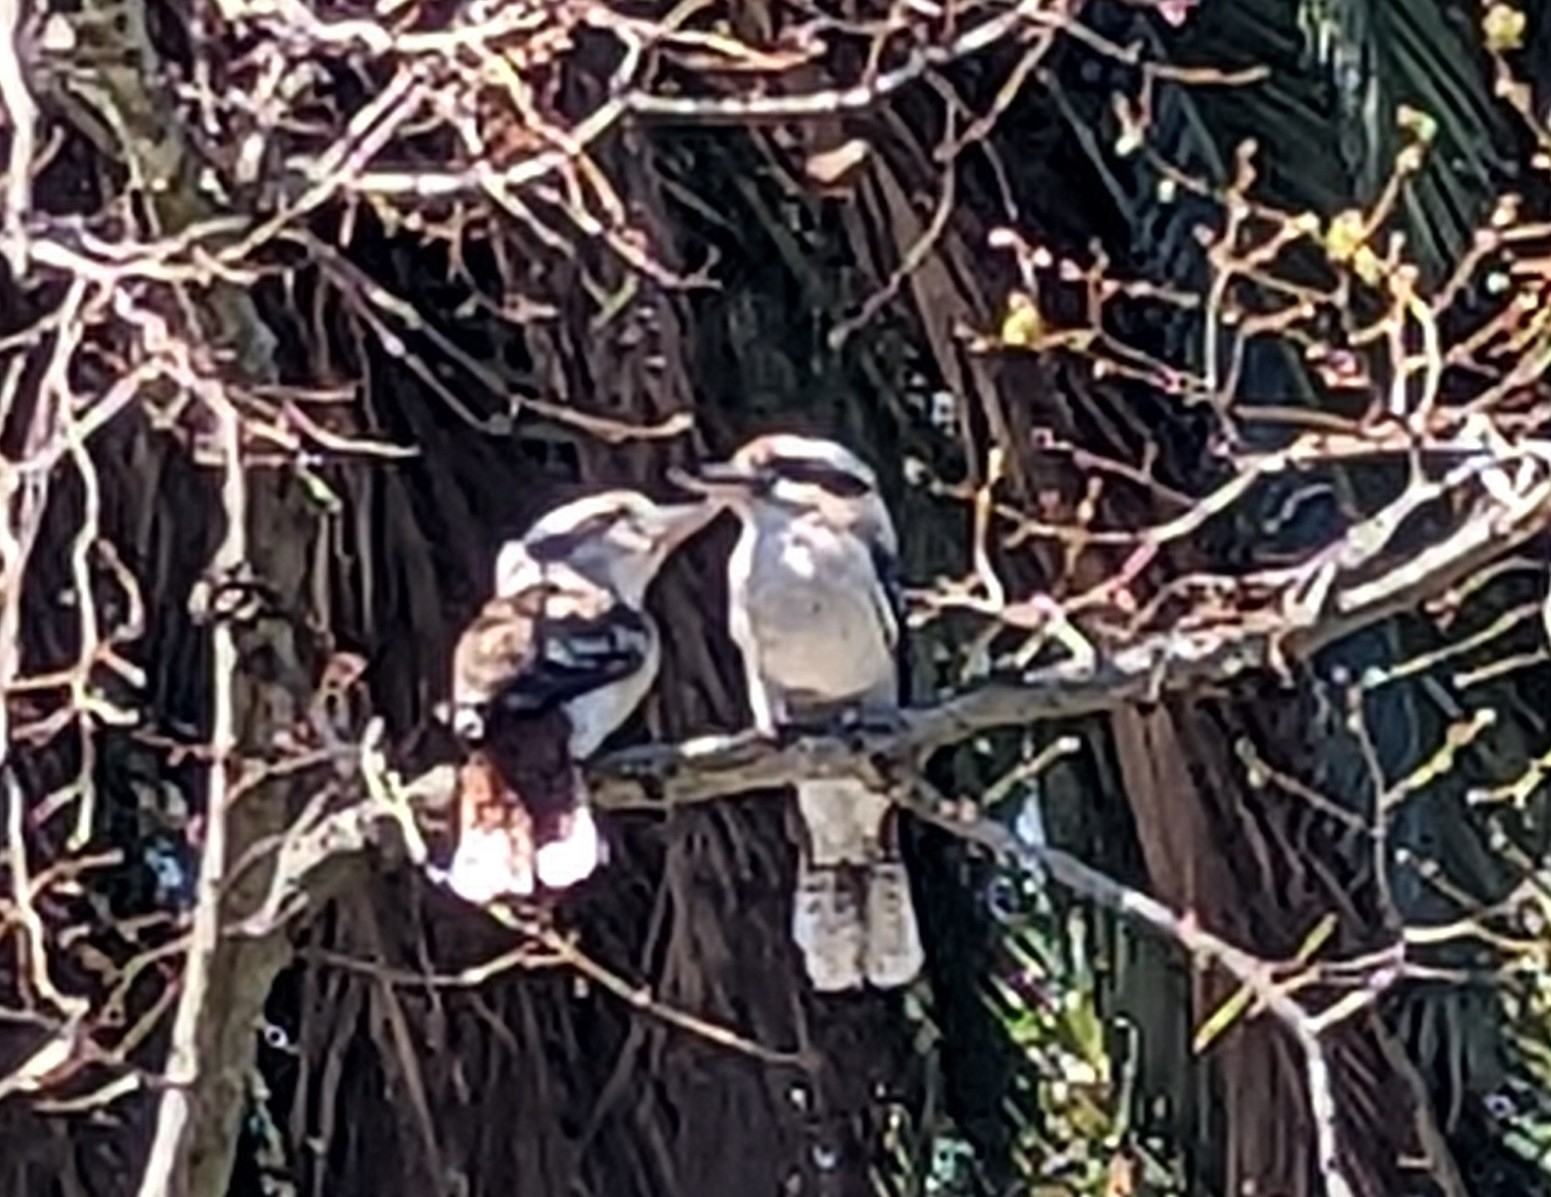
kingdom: Animalia
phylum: Chordata
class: Aves
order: Coraciiformes
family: Alcedinidae
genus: Dacelo
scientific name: Dacelo novaeguineae
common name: Laughing kookaburra
